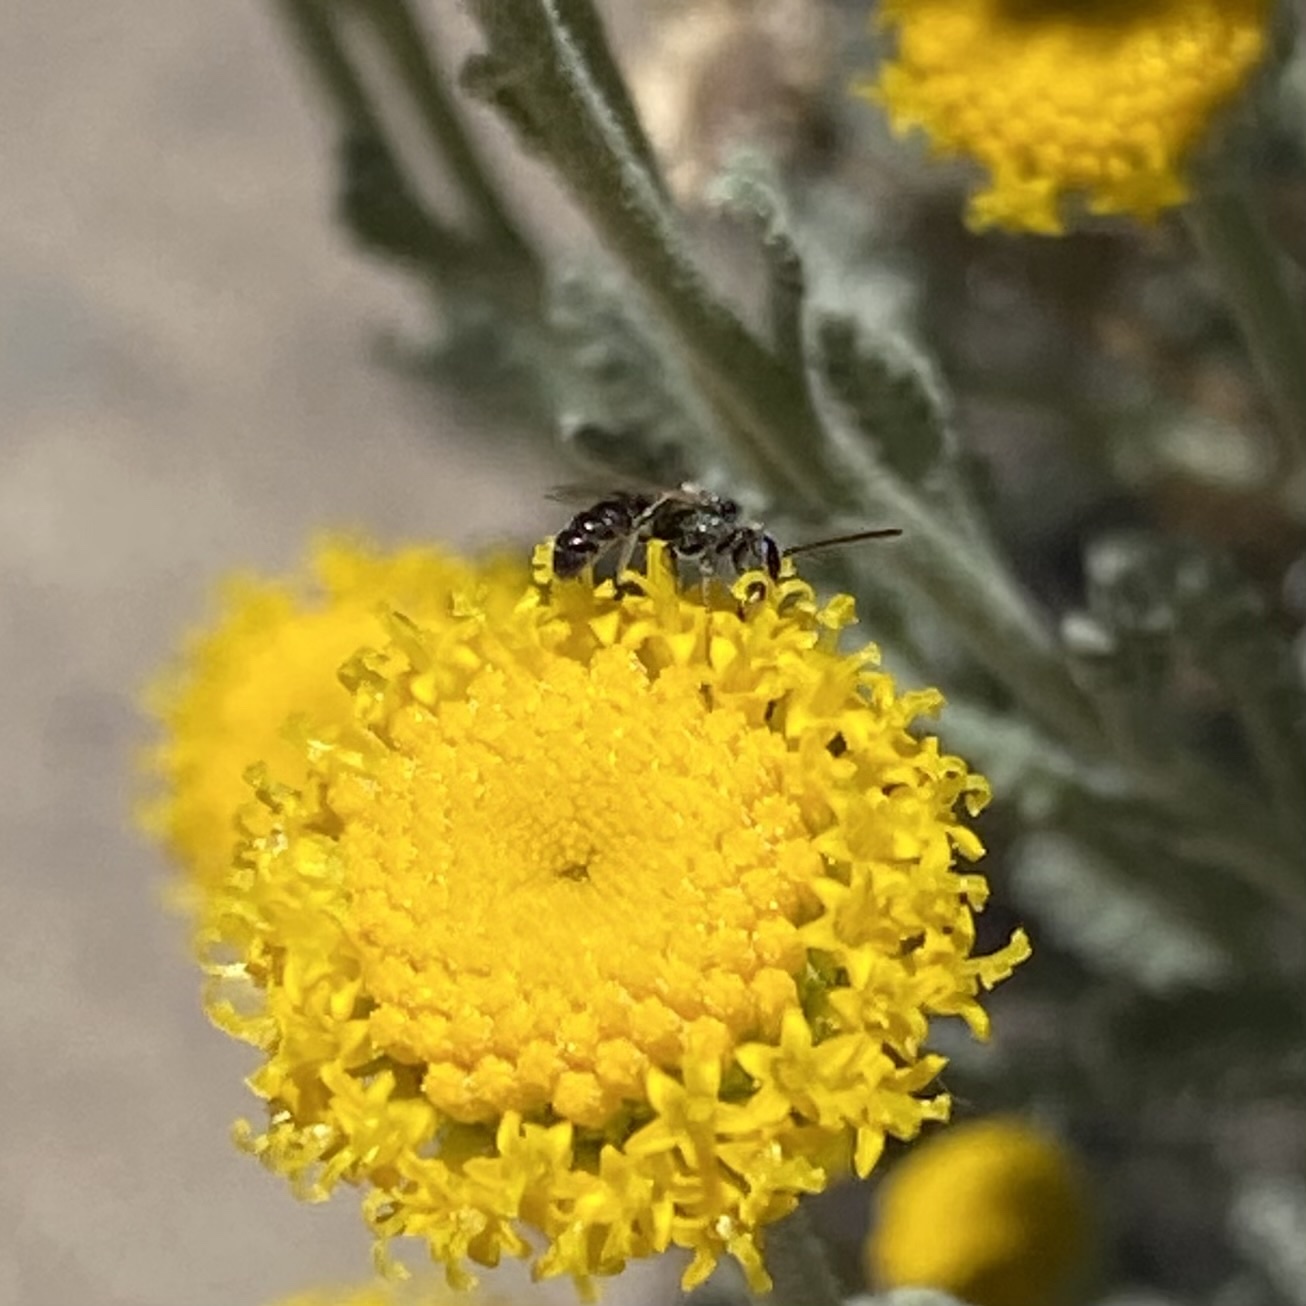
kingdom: Animalia
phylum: Arthropoda
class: Insecta
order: Hymenoptera
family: Halictidae
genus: Dialictus
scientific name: Dialictus
